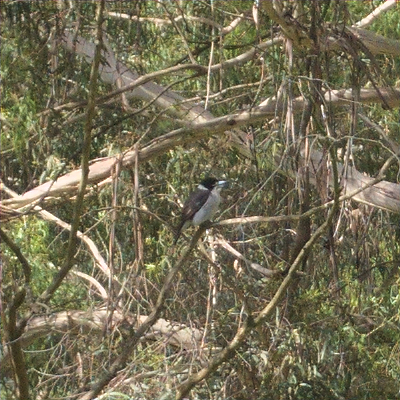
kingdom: Animalia
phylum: Chordata
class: Aves
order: Passeriformes
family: Cracticidae
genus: Cracticus
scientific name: Cracticus torquatus
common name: Grey butcherbird
